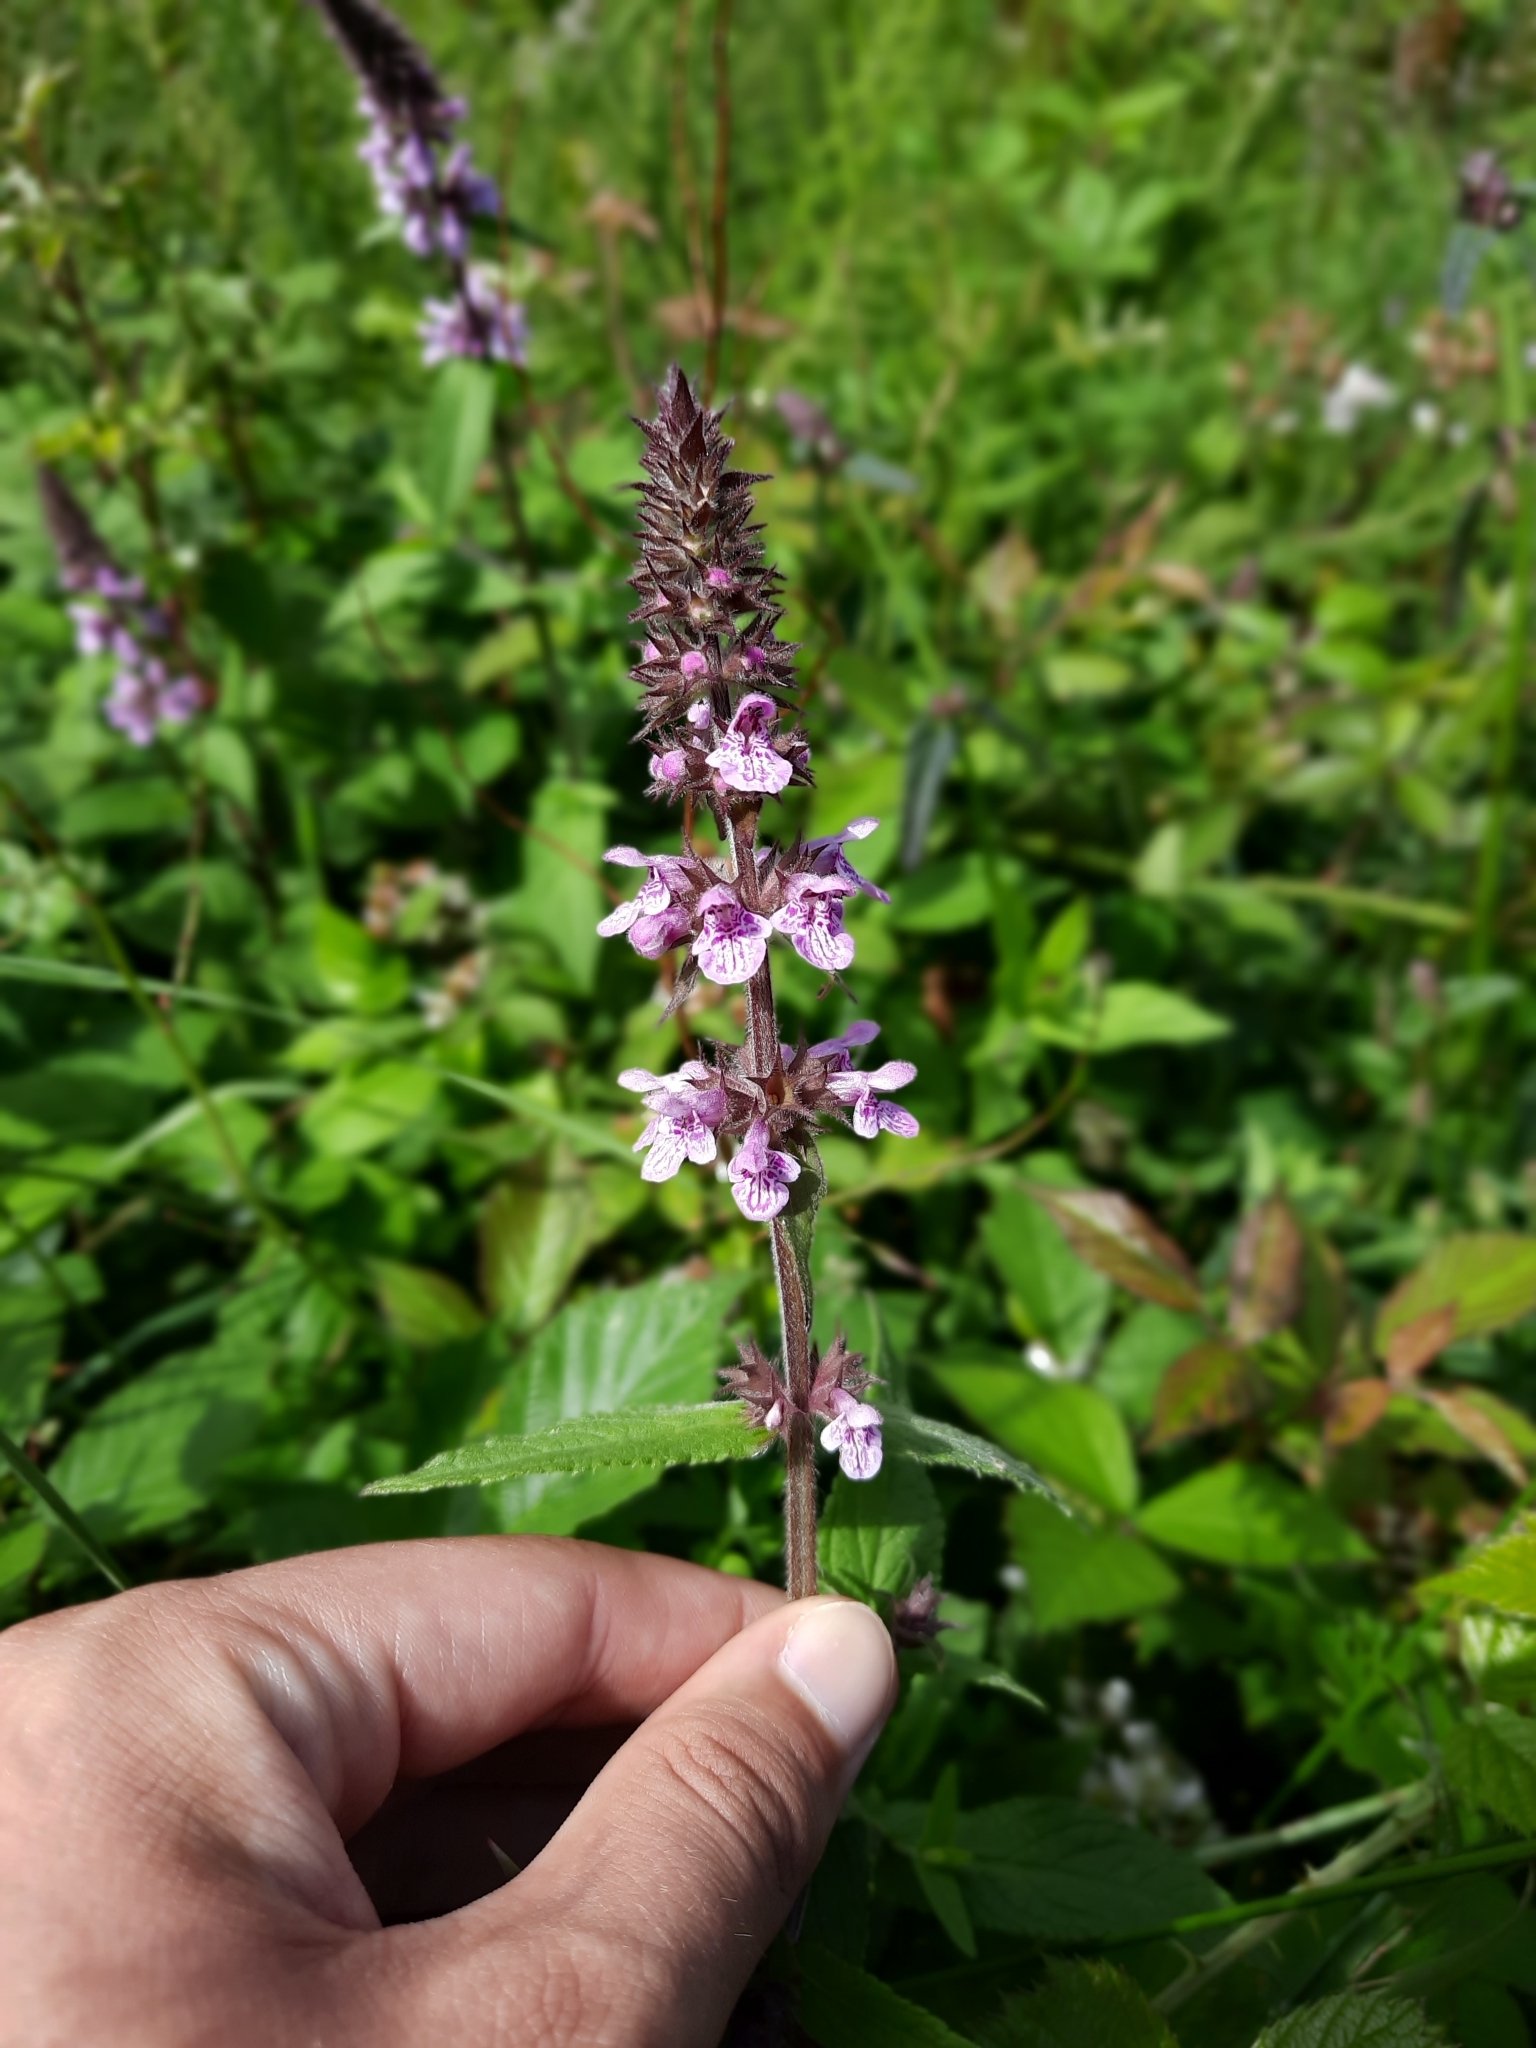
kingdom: Plantae
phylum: Tracheophyta
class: Magnoliopsida
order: Lamiales
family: Lamiaceae
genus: Stachys
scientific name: Stachys palustris
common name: Marsh woundwort
